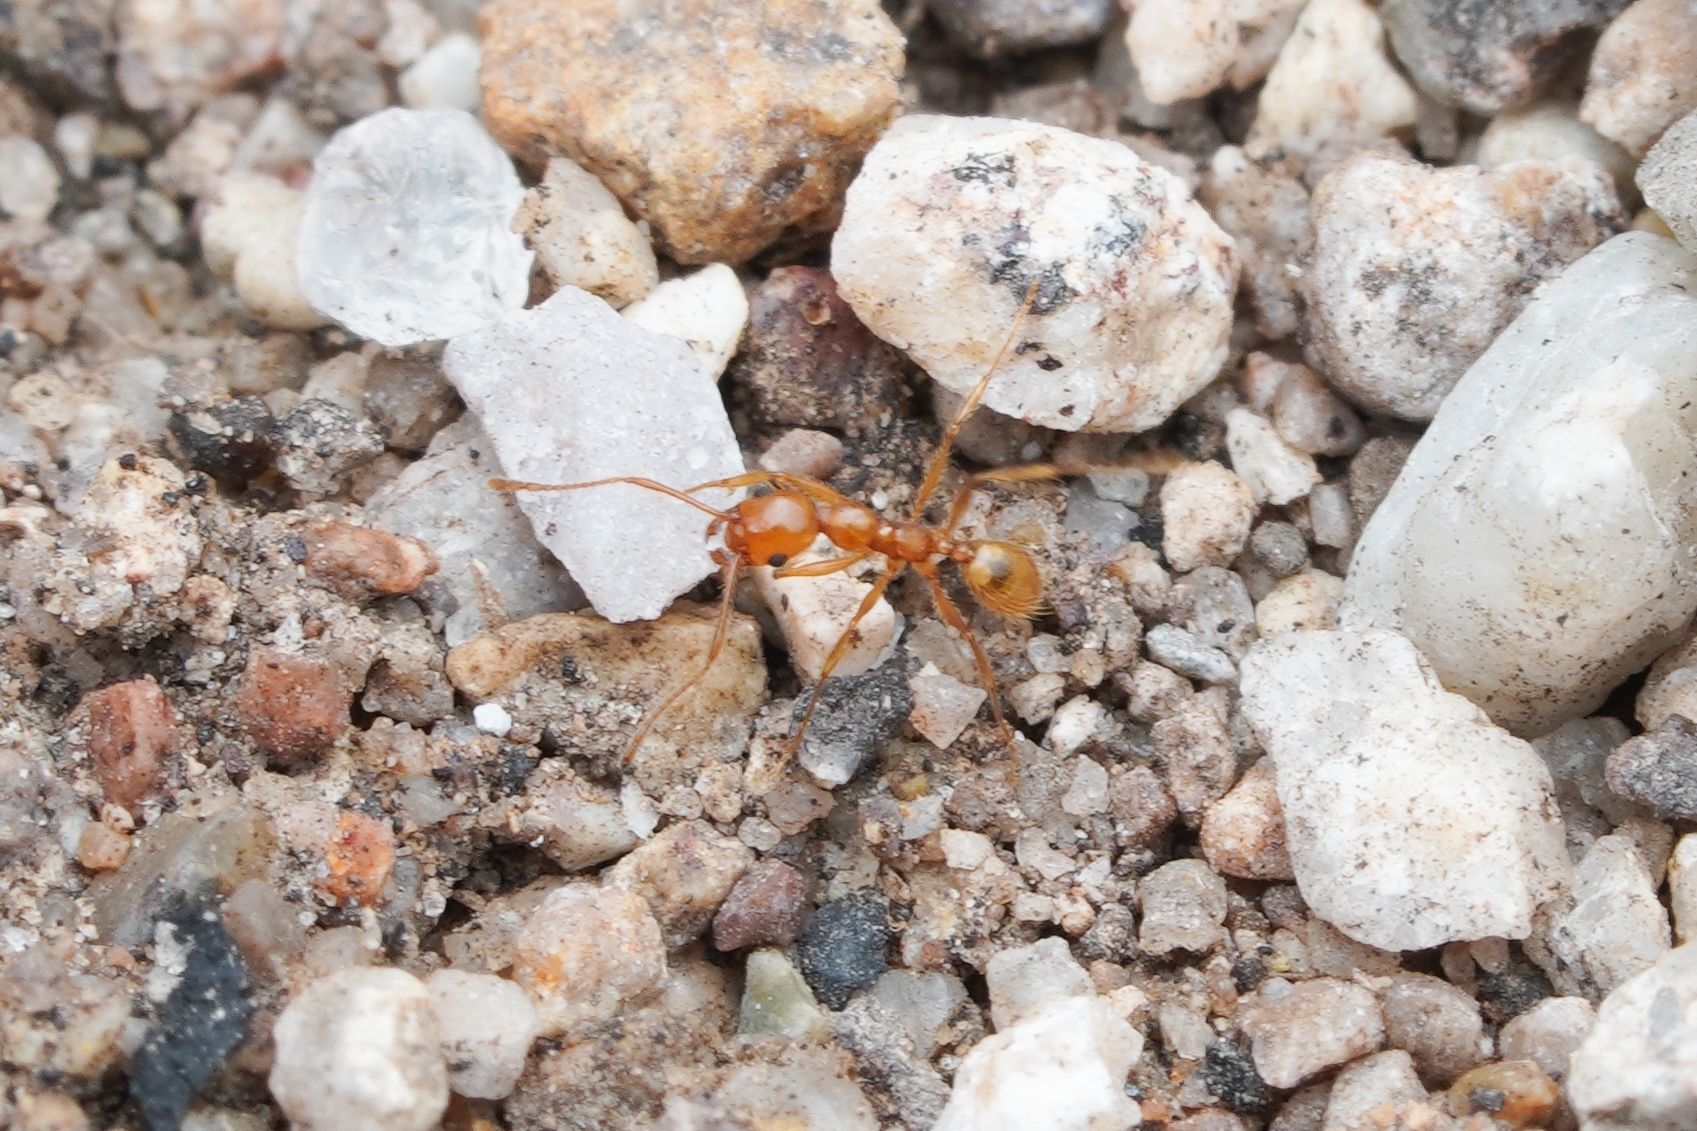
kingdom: Animalia
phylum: Arthropoda
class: Insecta
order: Hymenoptera
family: Formicidae
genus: Pheidole
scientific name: Pheidole hyatti
